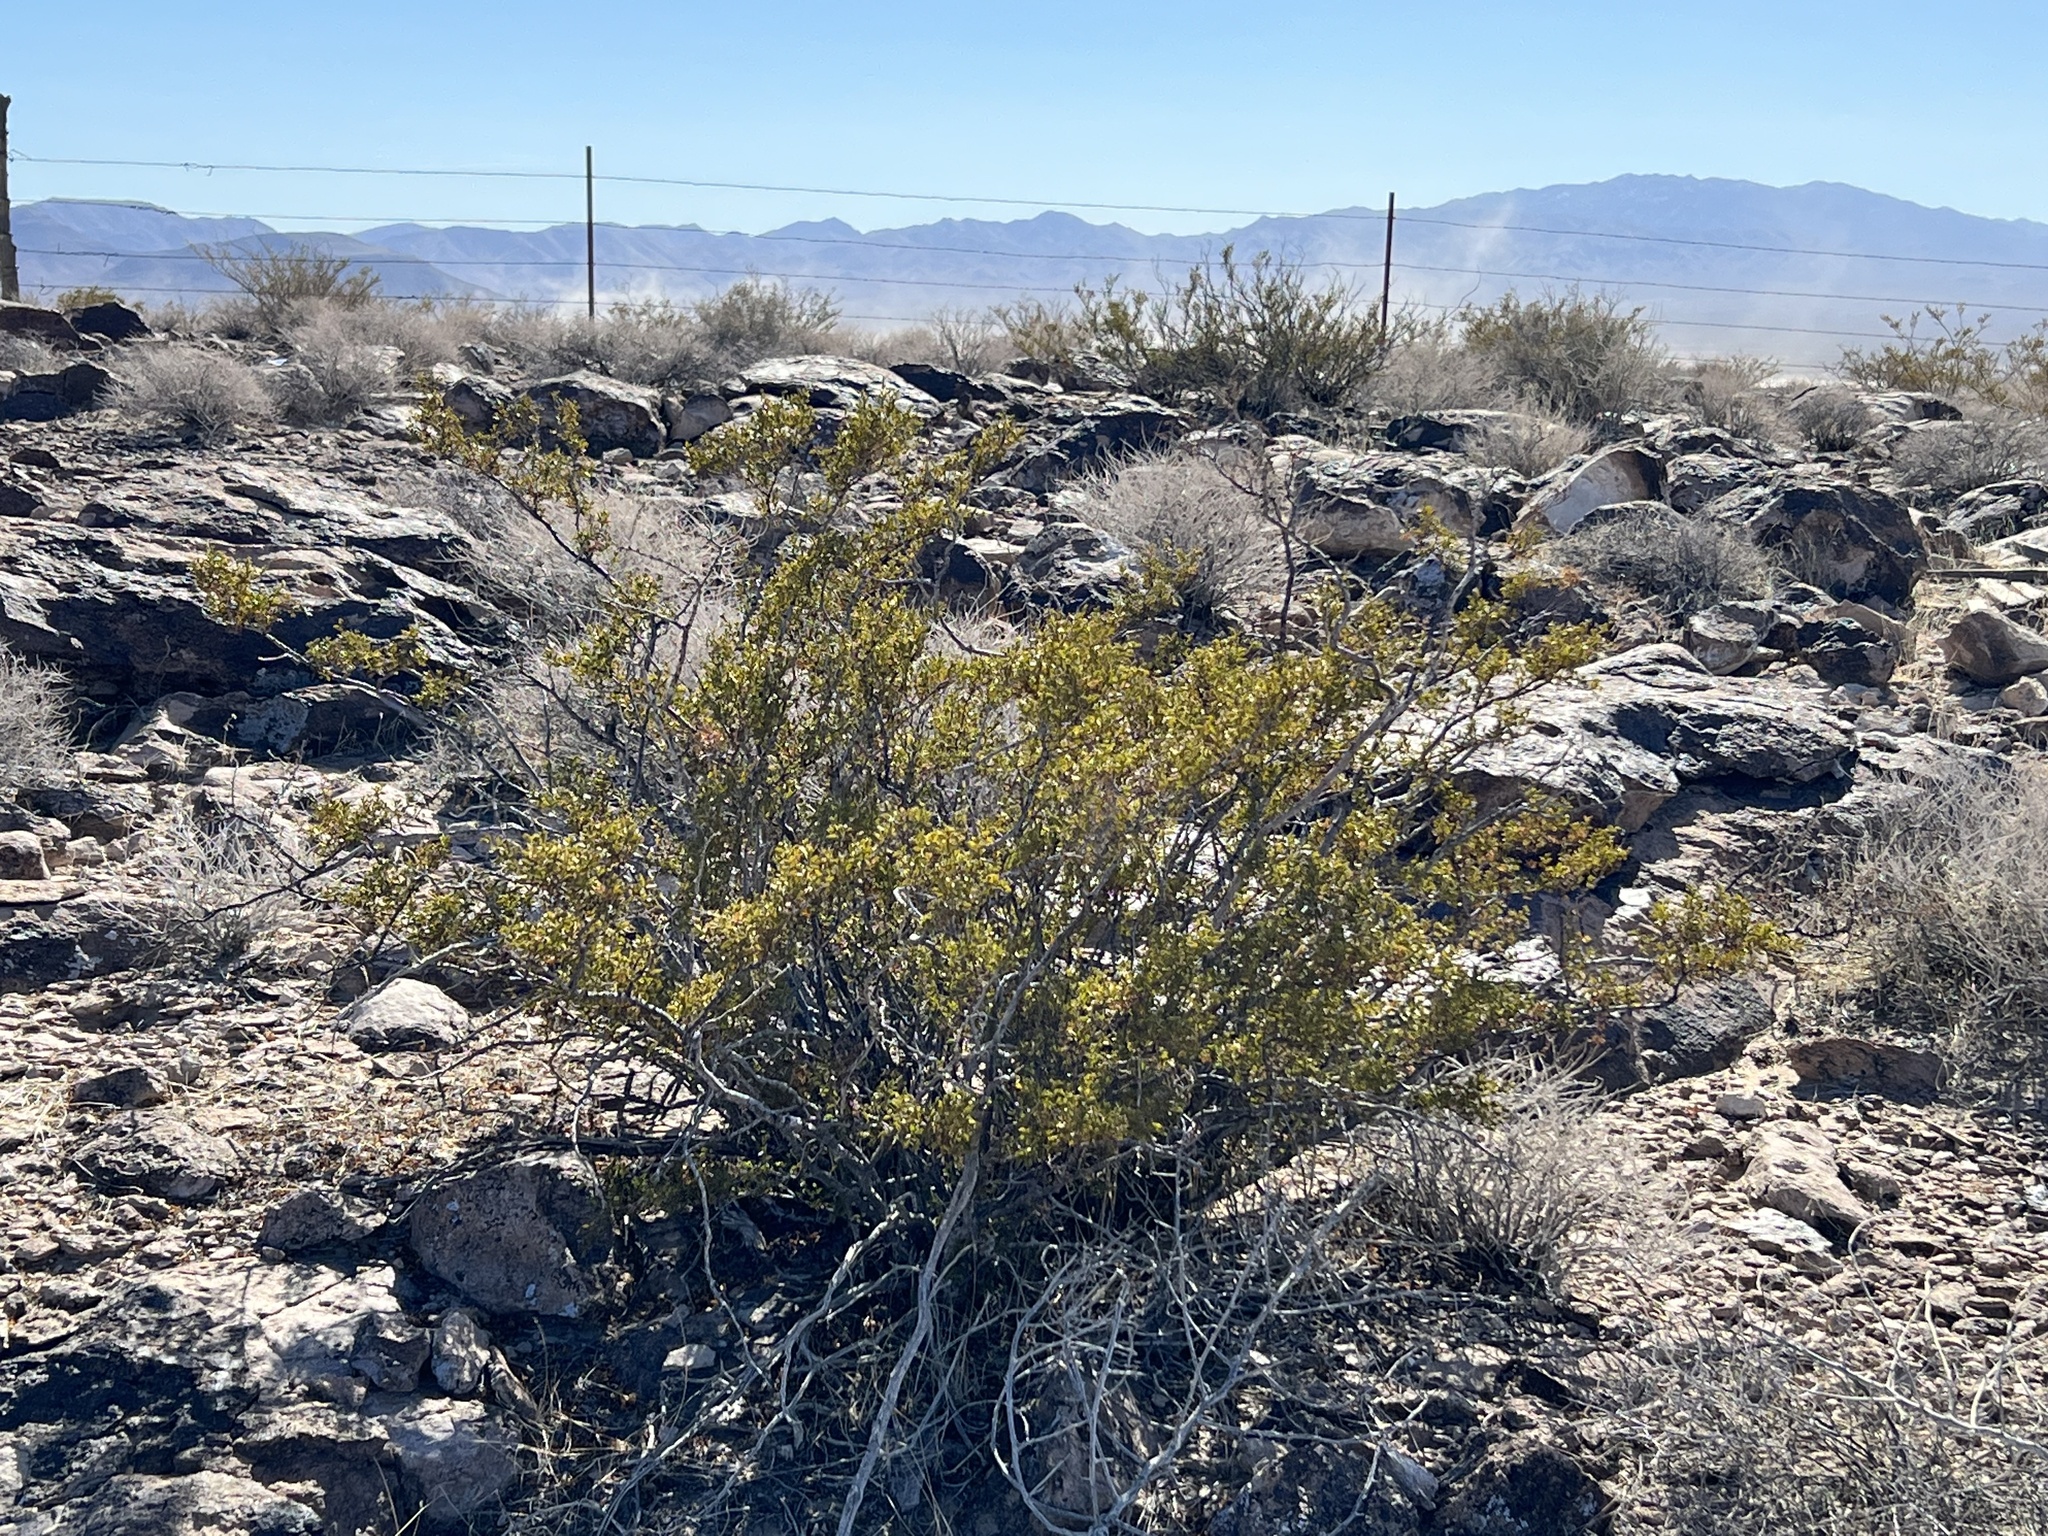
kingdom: Plantae
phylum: Tracheophyta
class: Magnoliopsida
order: Zygophyllales
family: Zygophyllaceae
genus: Larrea
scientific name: Larrea tridentata
